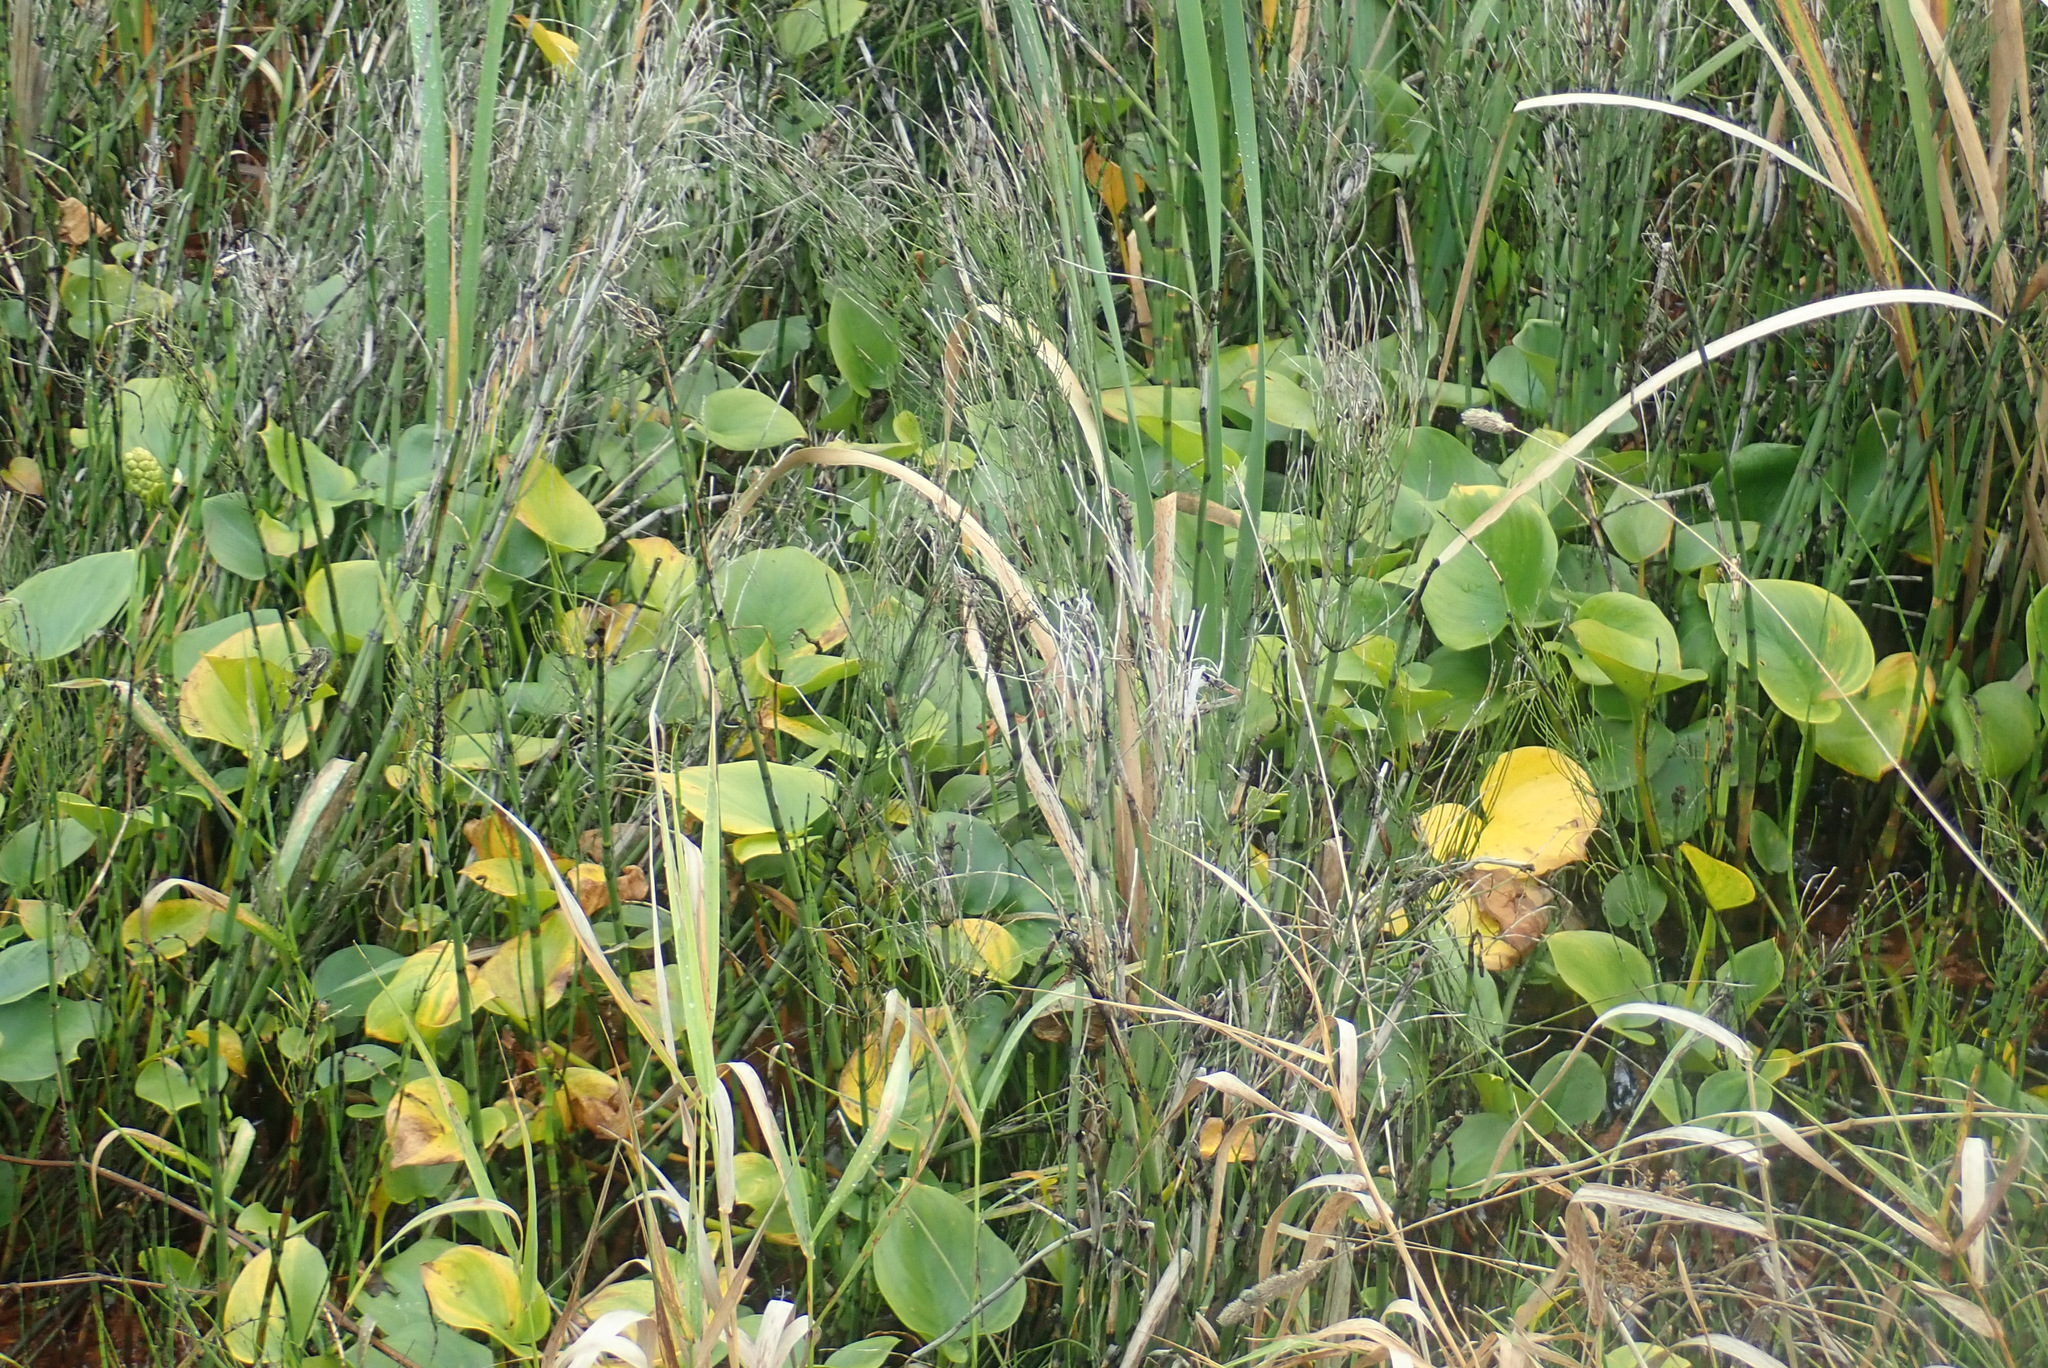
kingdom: Plantae
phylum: Tracheophyta
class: Liliopsida
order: Alismatales
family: Araceae
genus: Calla
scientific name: Calla palustris
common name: Bog arum
